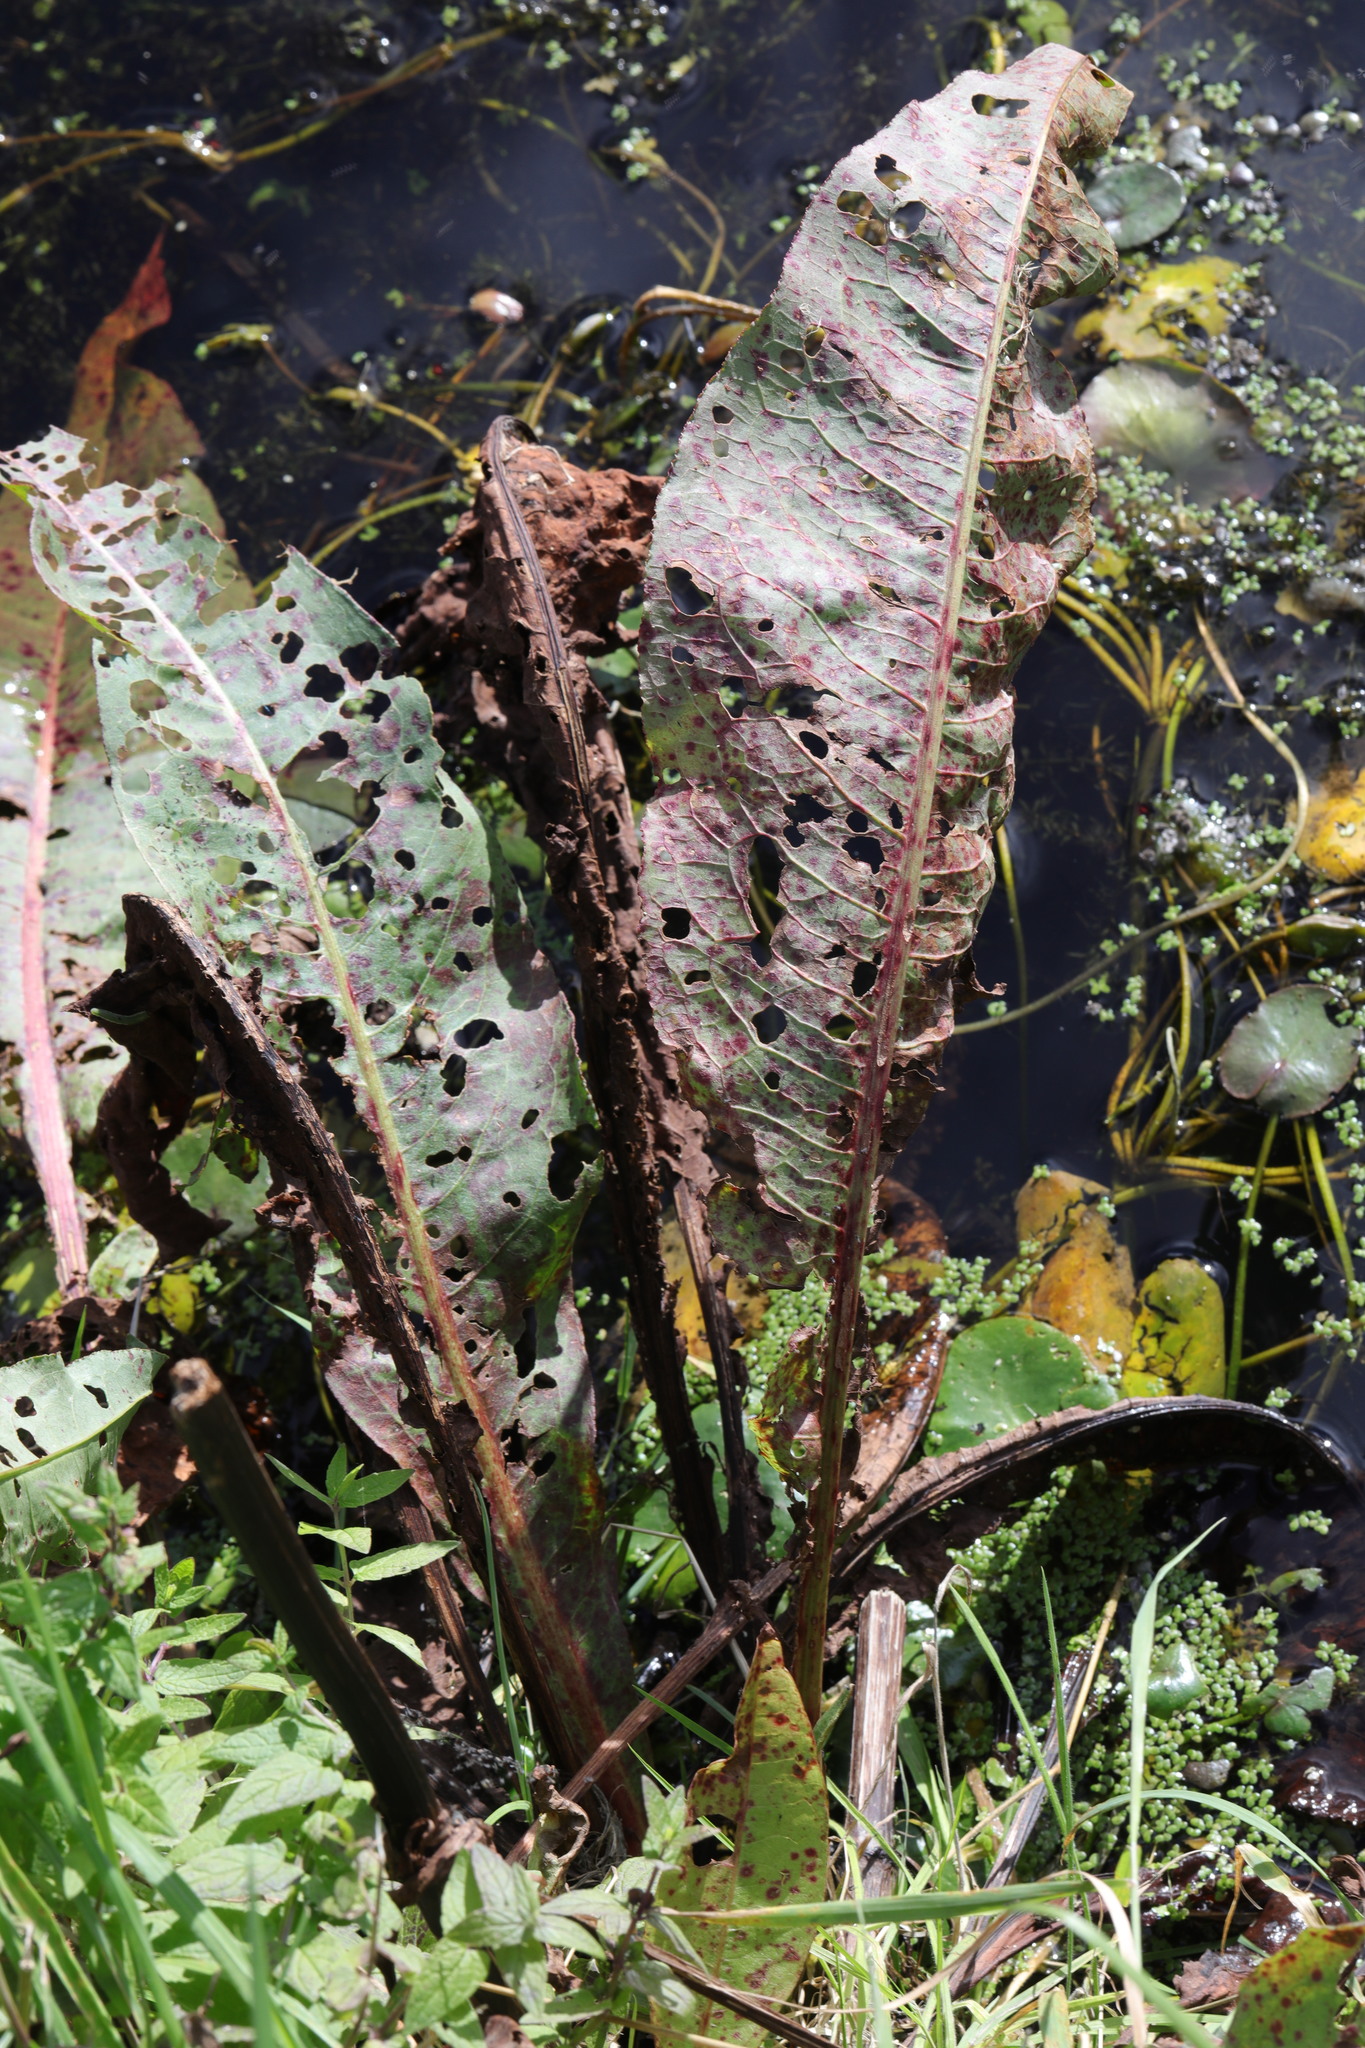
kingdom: Plantae
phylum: Tracheophyta
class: Magnoliopsida
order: Caryophyllales
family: Polygonaceae
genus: Rumex
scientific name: Rumex hydrolapathum
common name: Water dock
